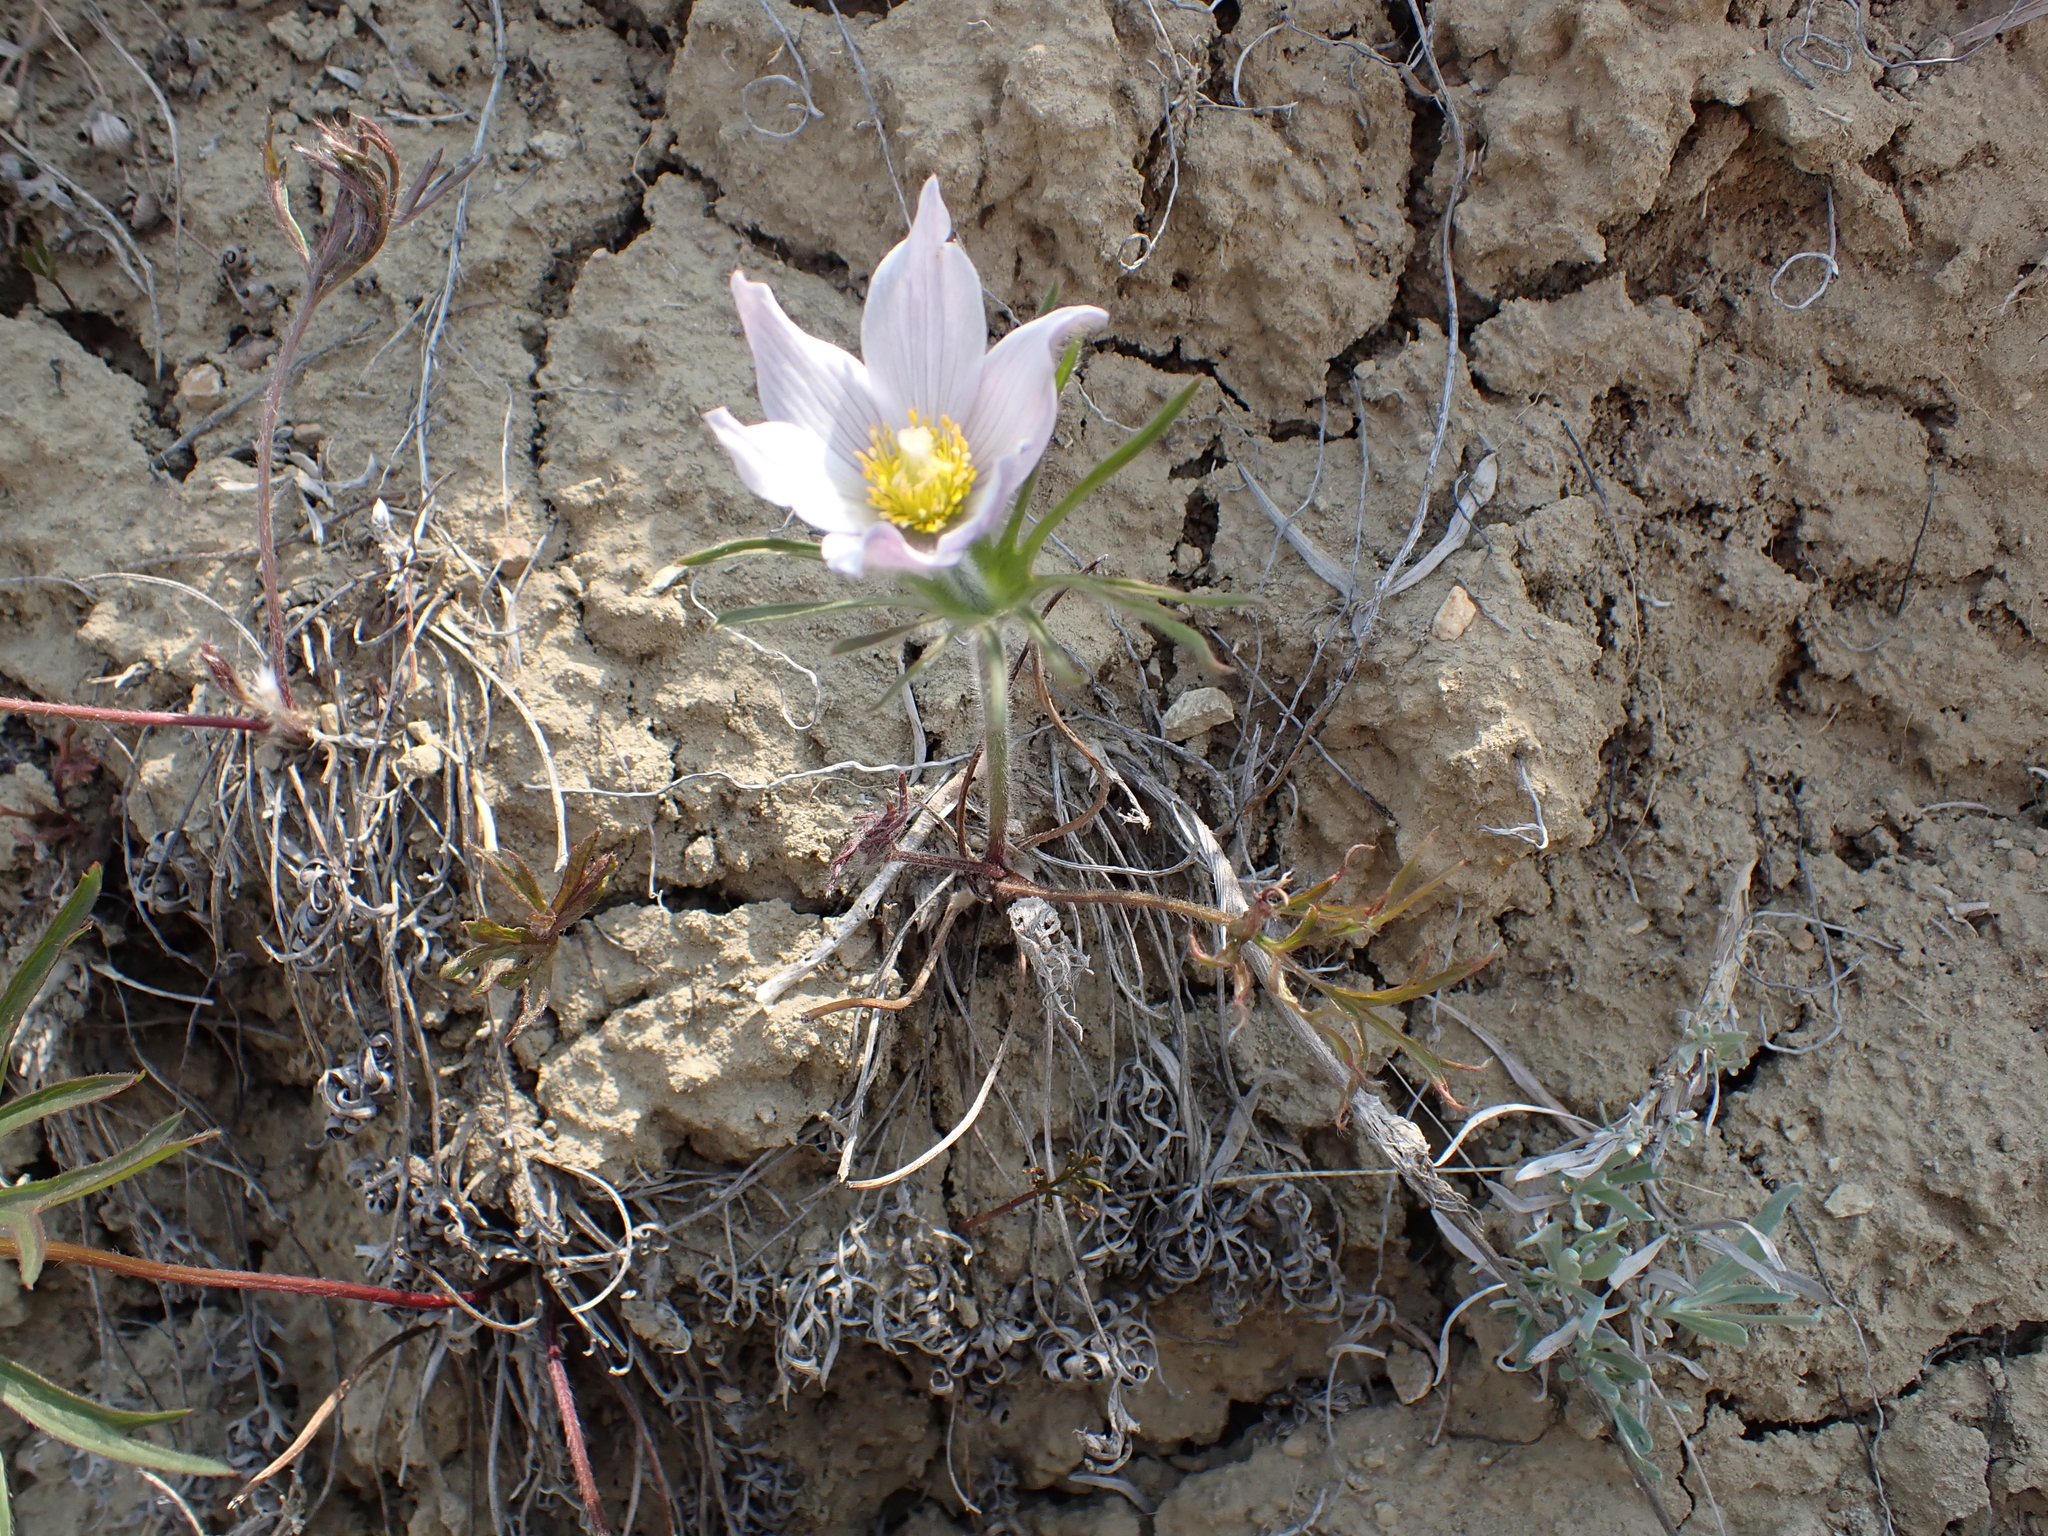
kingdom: Plantae
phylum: Tracheophyta
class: Magnoliopsida
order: Ranunculales
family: Ranunculaceae
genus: Pulsatilla
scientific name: Pulsatilla nuttalliana
